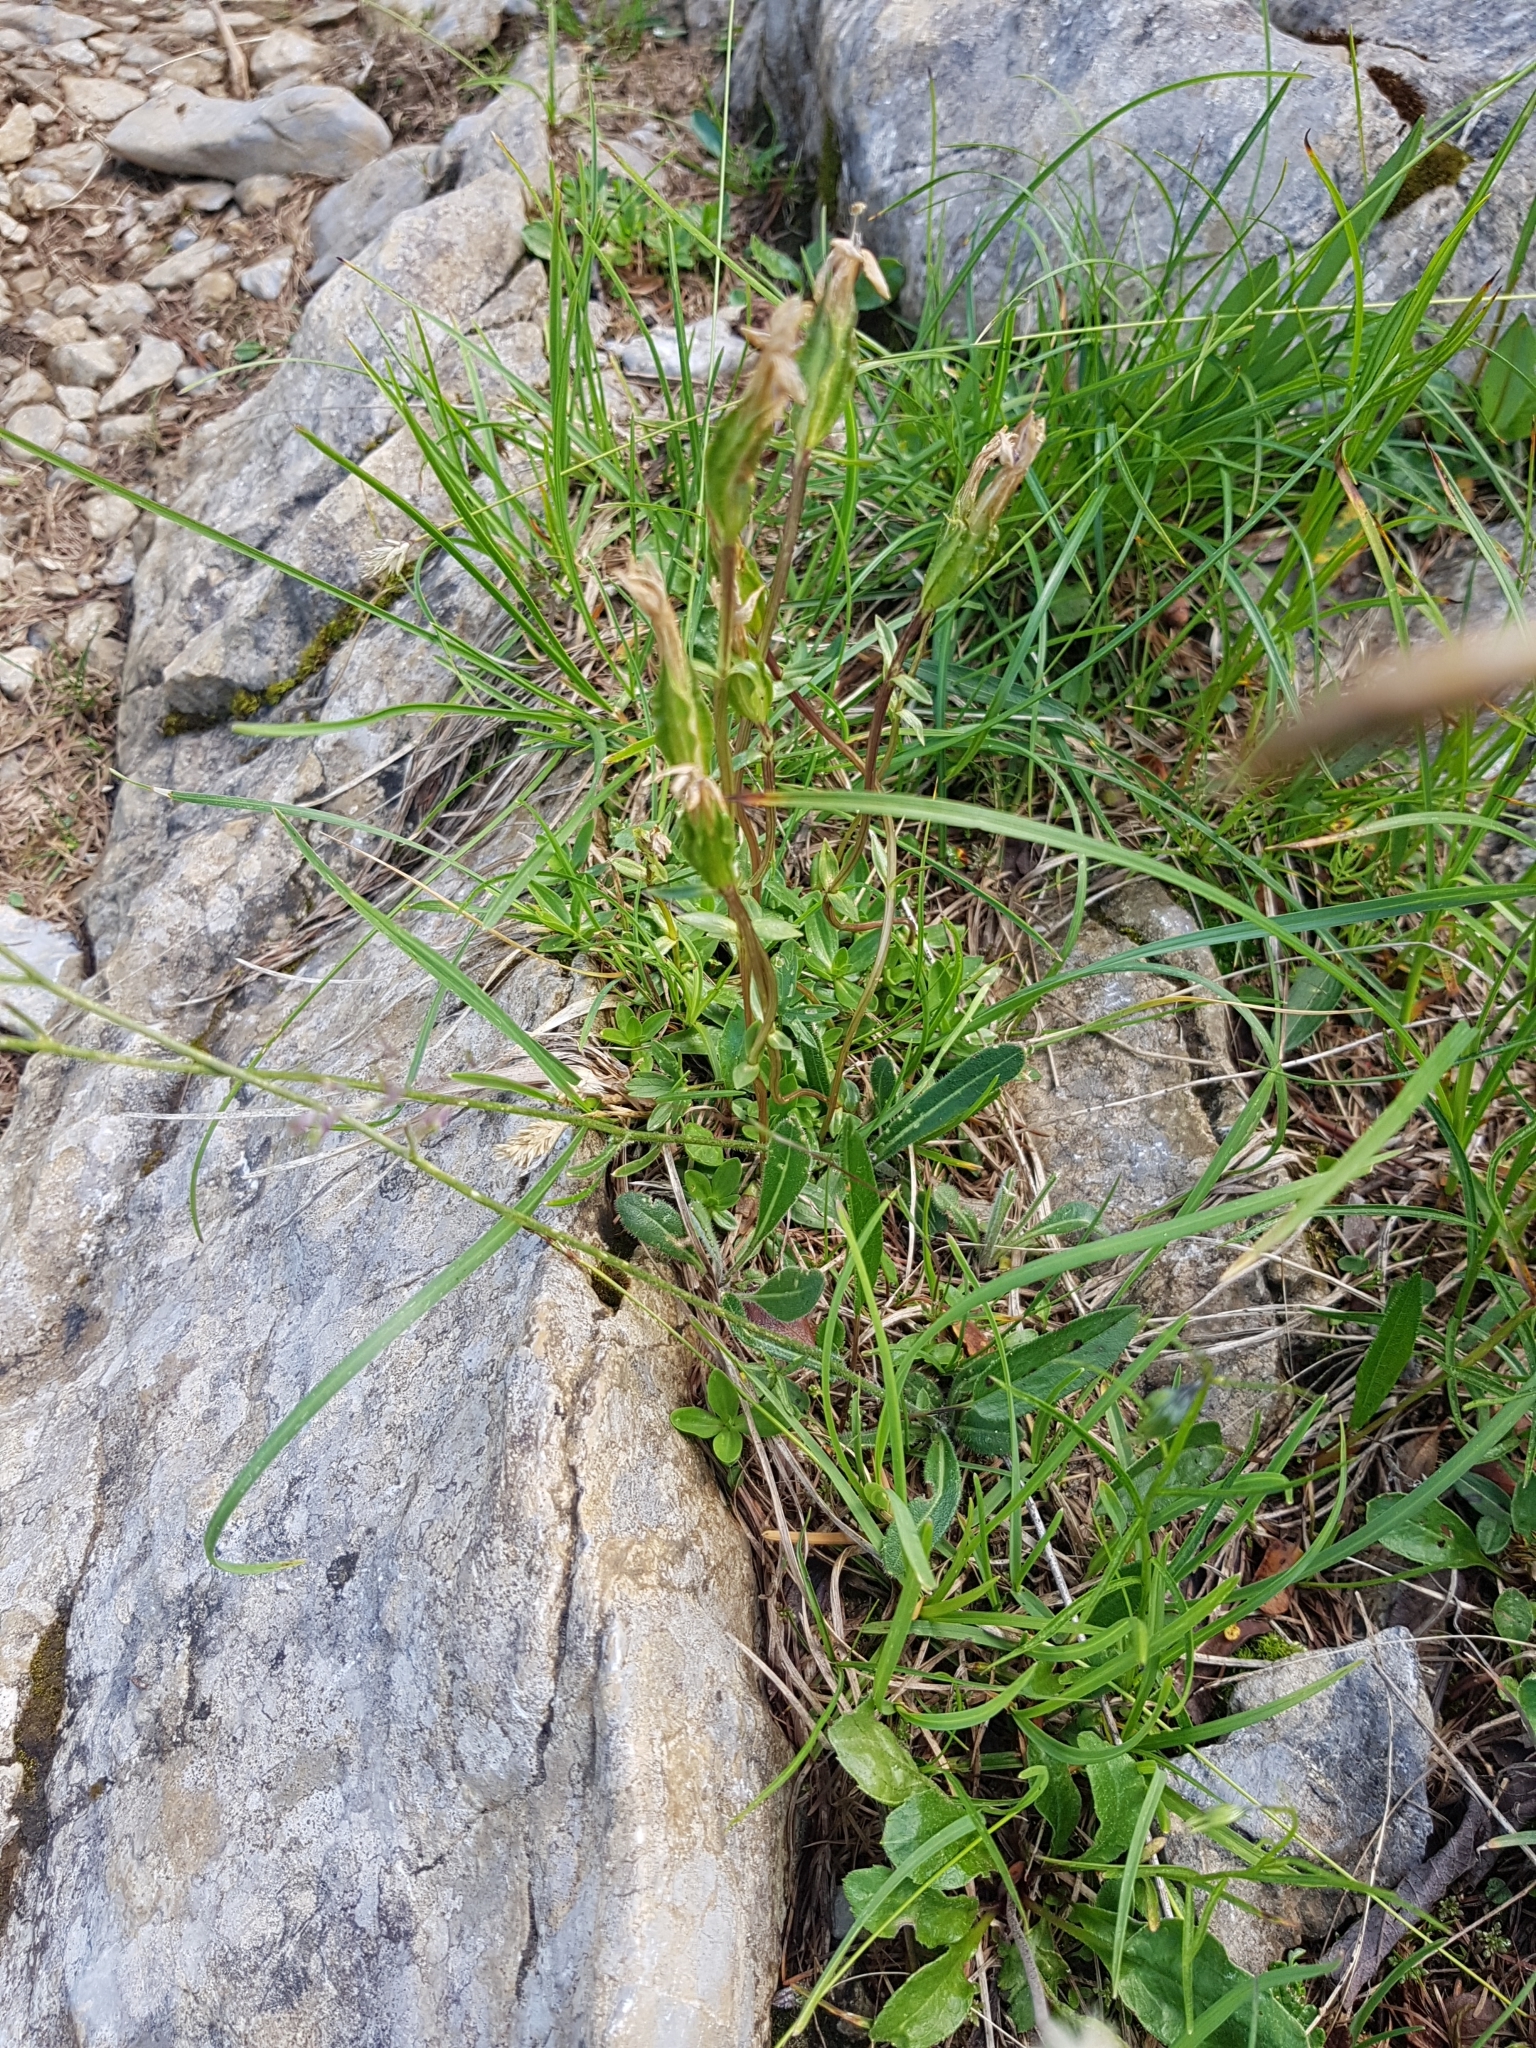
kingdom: Plantae
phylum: Tracheophyta
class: Magnoliopsida
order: Gentianales
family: Gentianaceae
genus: Gentiana
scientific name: Gentiana verna
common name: Spring gentian
